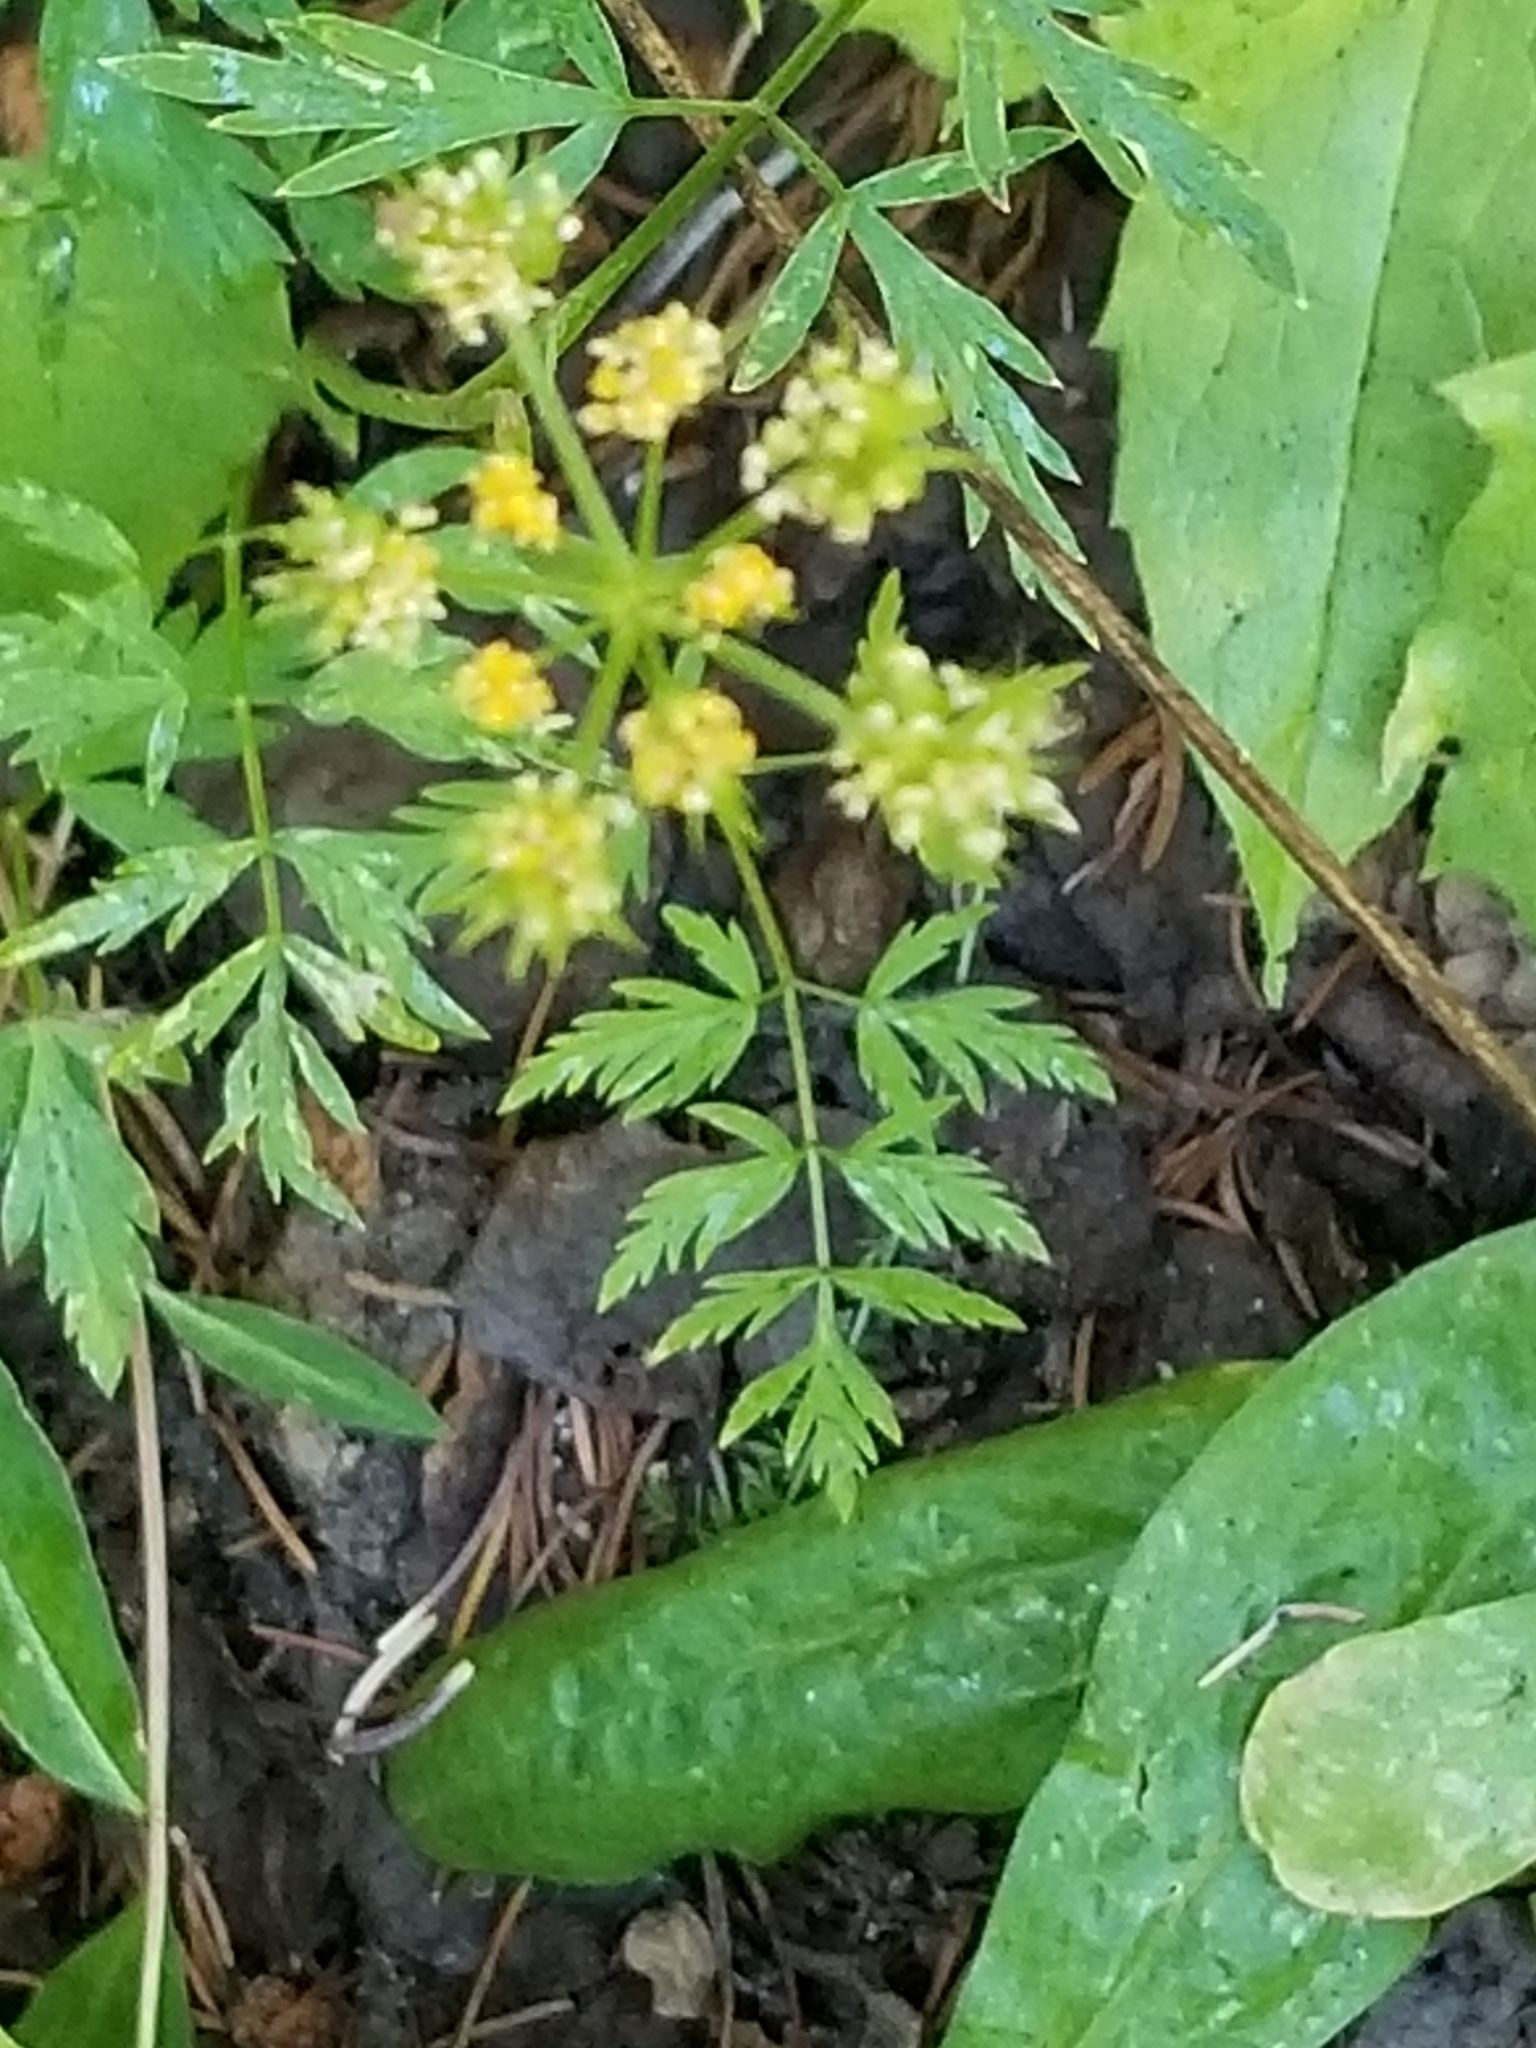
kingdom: Plantae
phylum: Tracheophyta
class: Magnoliopsida
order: Apiales
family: Apiaceae
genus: Cymopterus
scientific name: Cymopterus lemmonii
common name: Lemmon's spring-parsley
